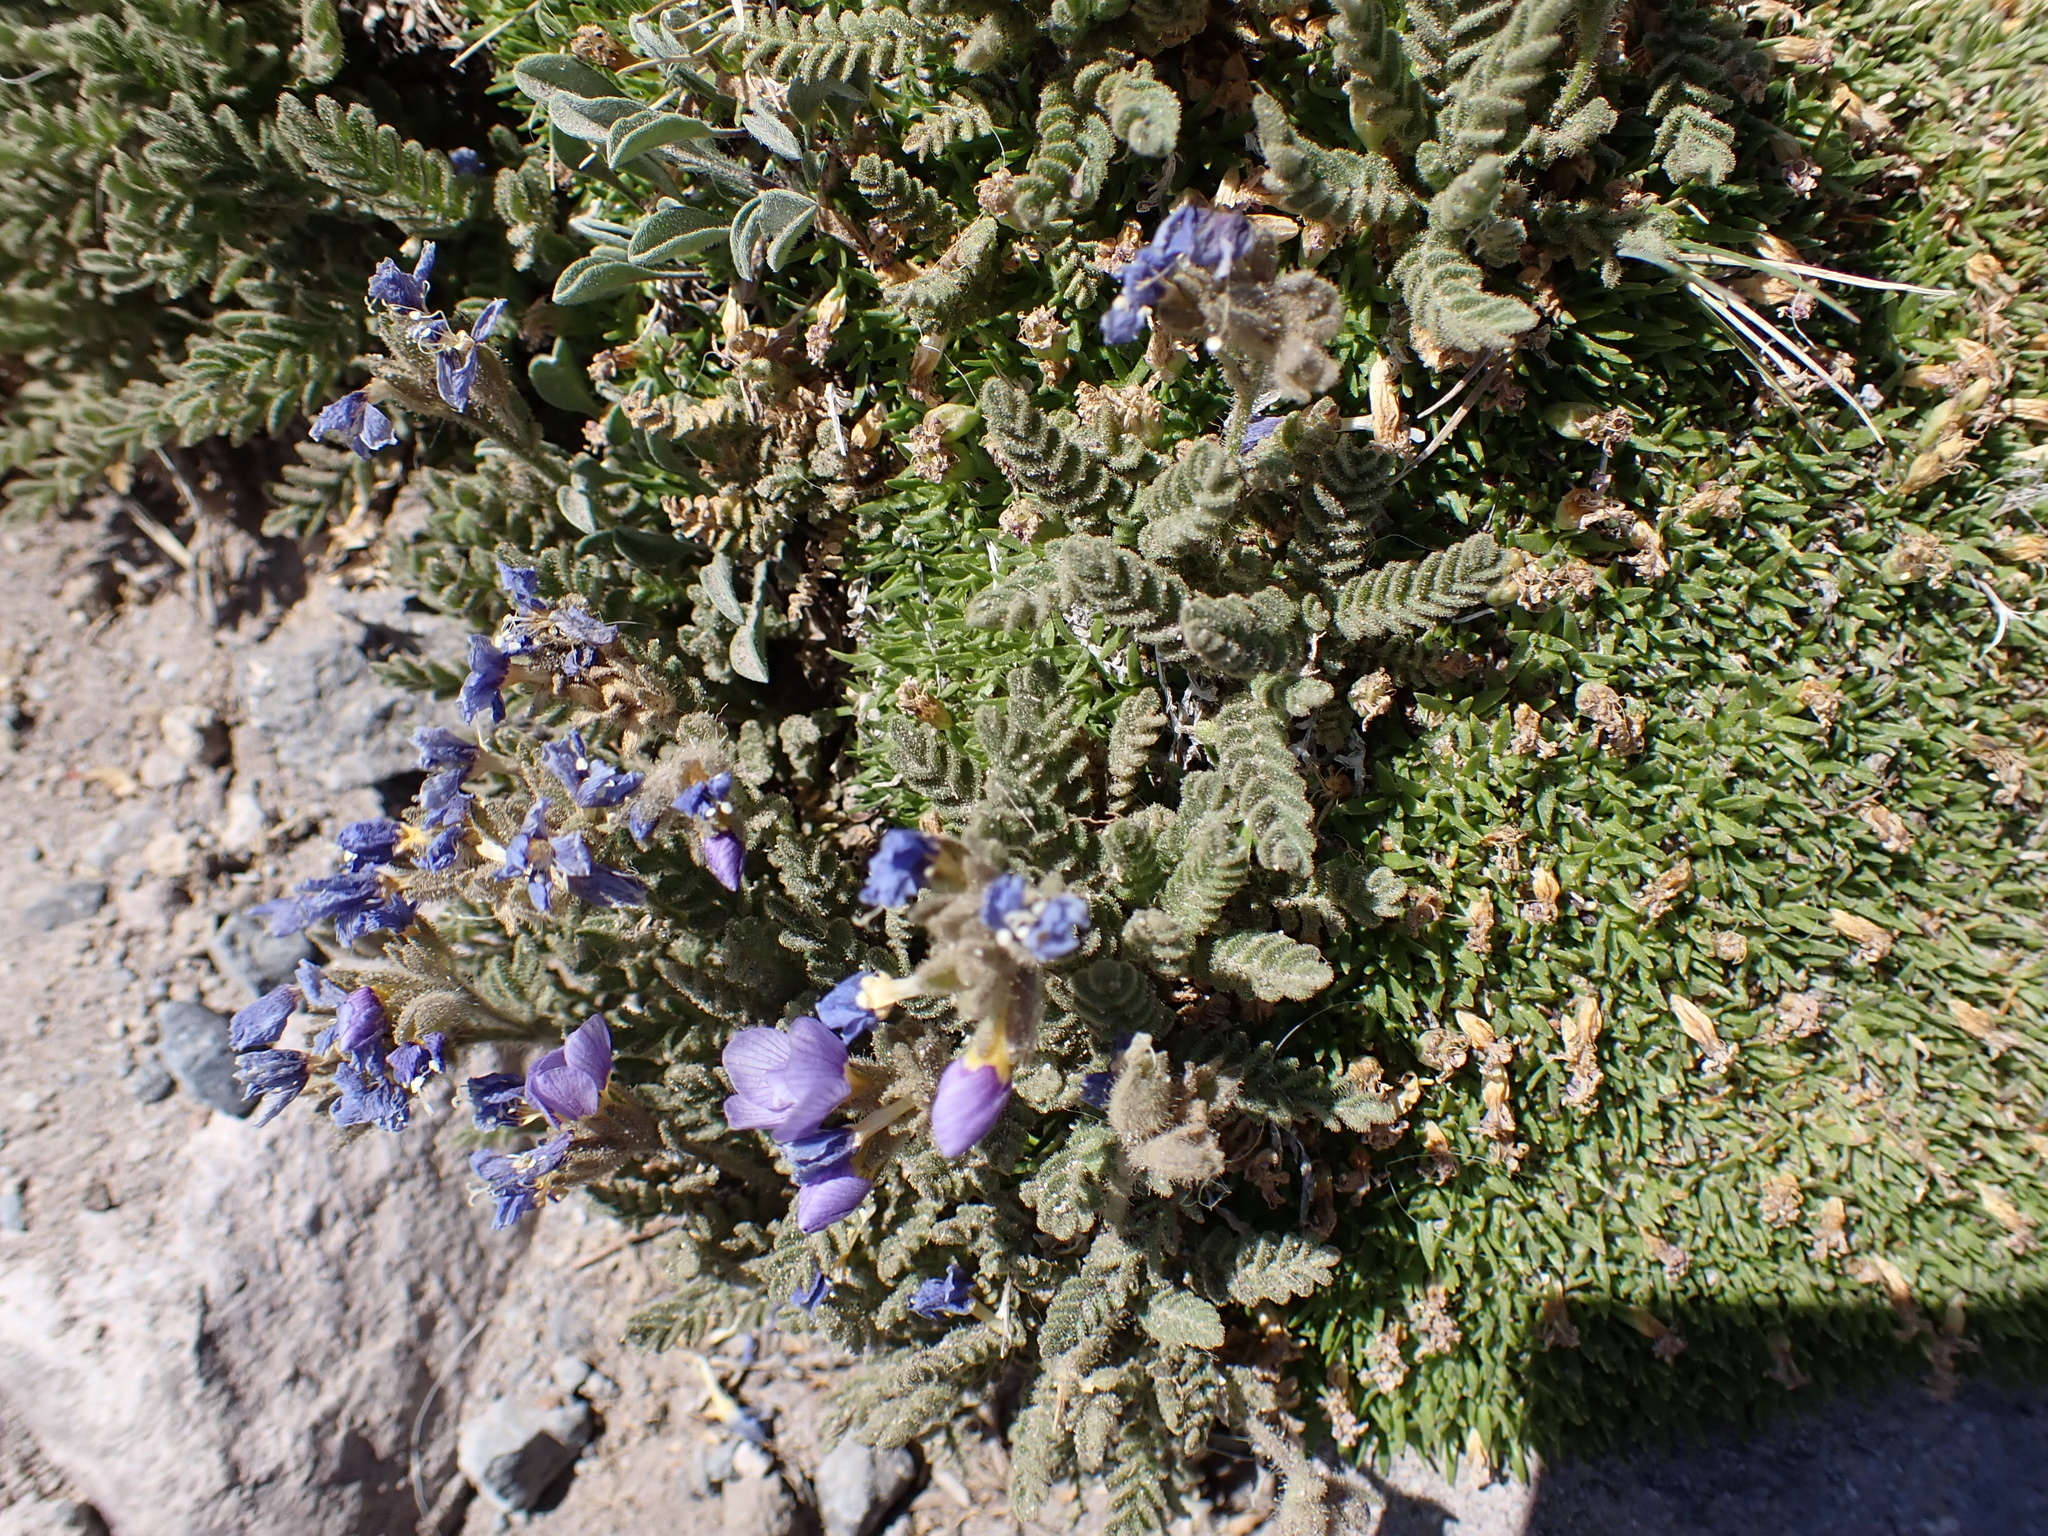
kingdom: Plantae
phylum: Tracheophyta
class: Magnoliopsida
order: Ericales
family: Polemoniaceae
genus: Polemonium
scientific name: Polemonium elegans
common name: Elegant jacob's-ladder
